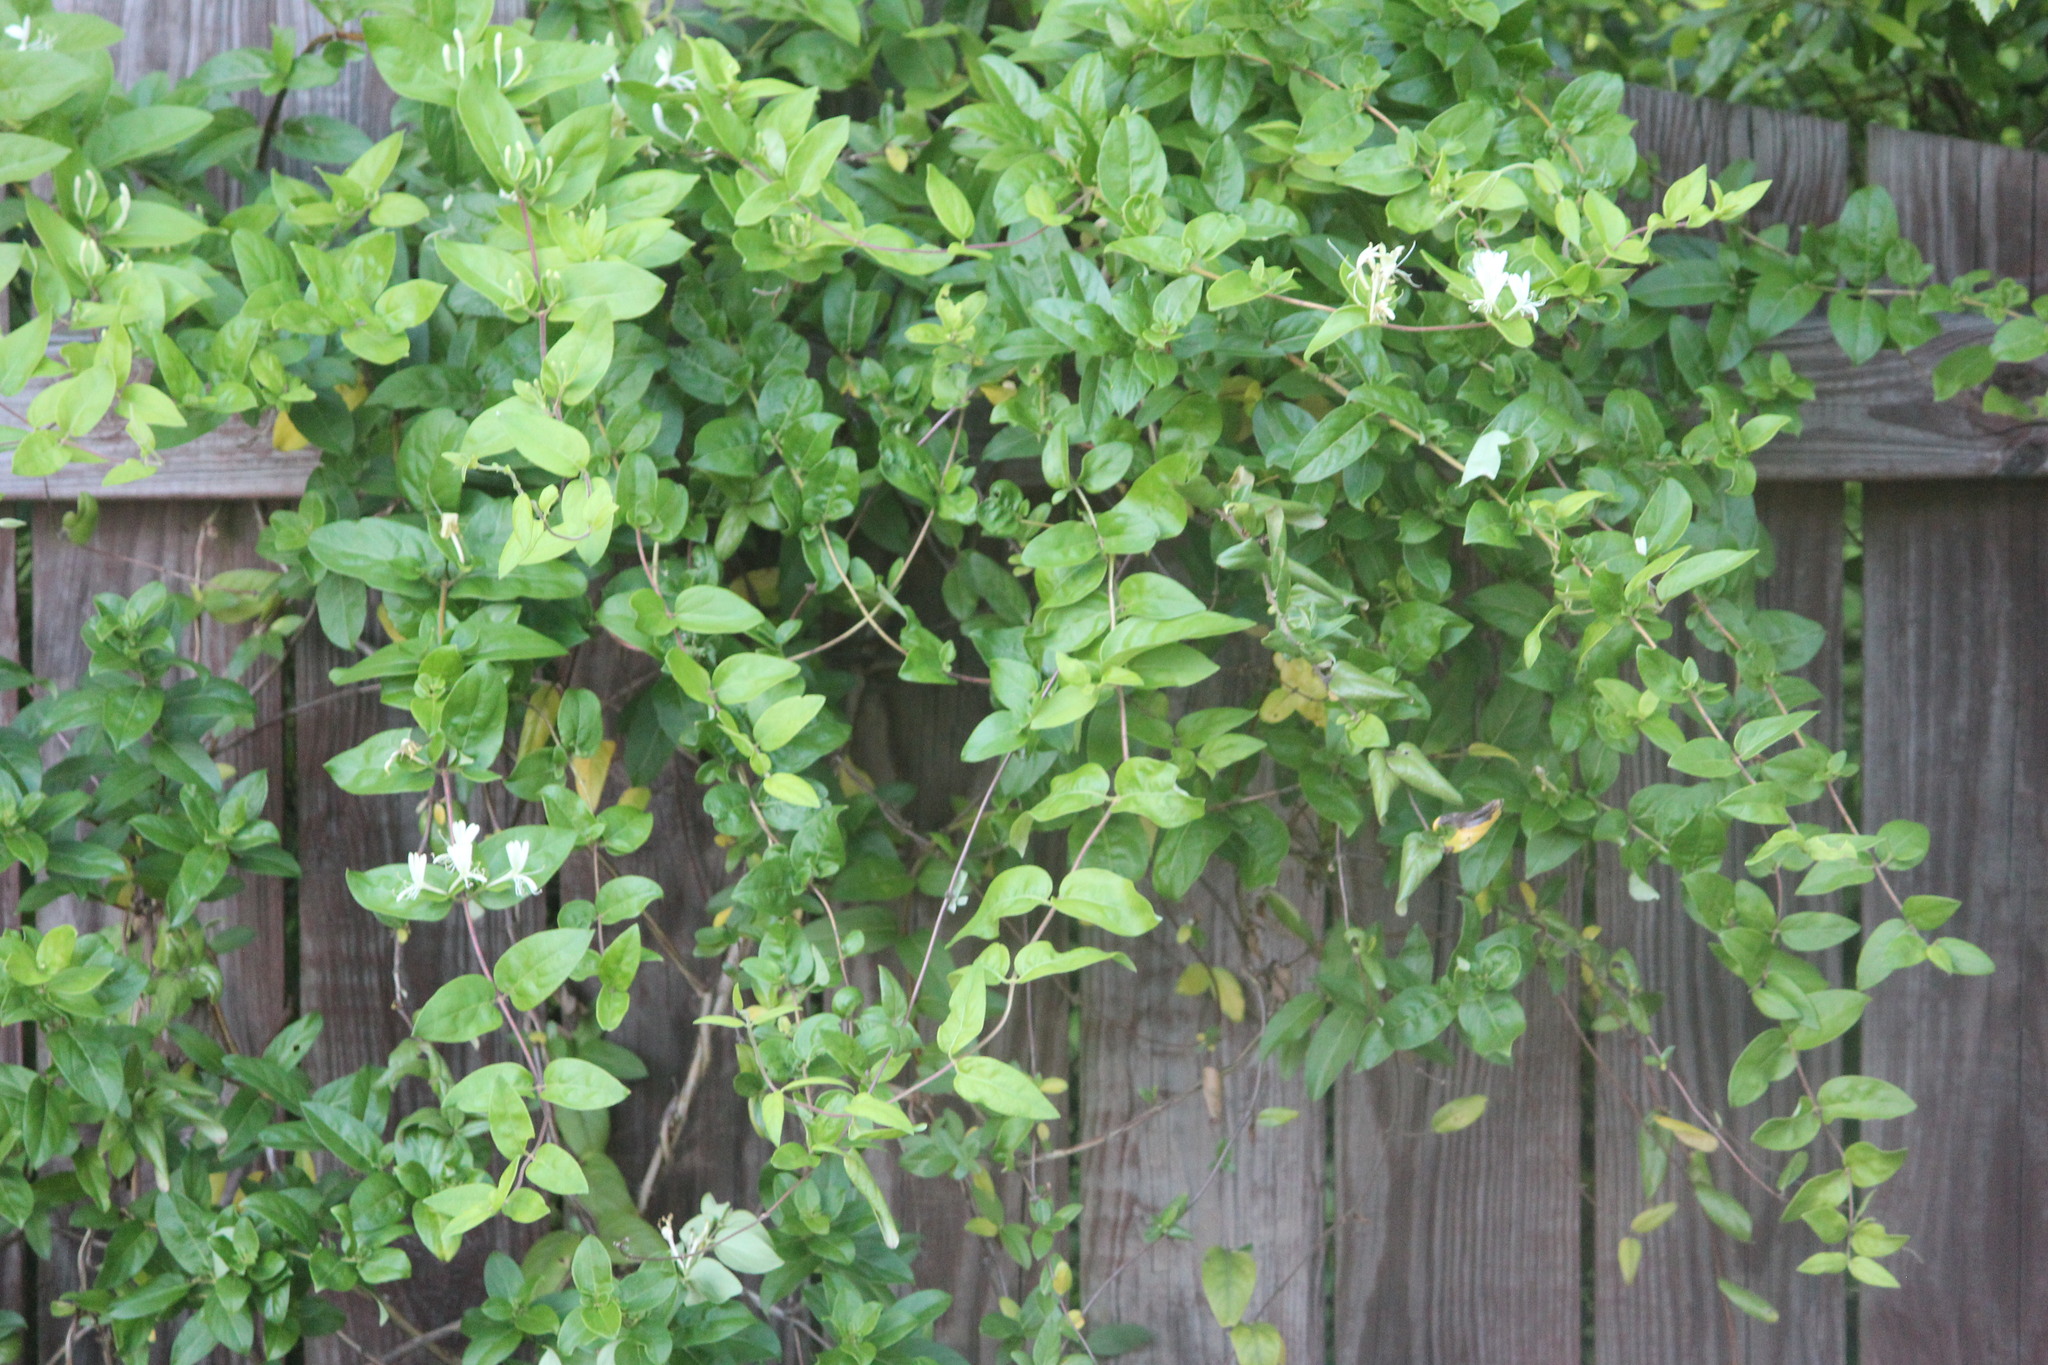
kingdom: Plantae
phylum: Tracheophyta
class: Magnoliopsida
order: Dipsacales
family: Caprifoliaceae
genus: Lonicera
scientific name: Lonicera japonica
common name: Japanese honeysuckle
